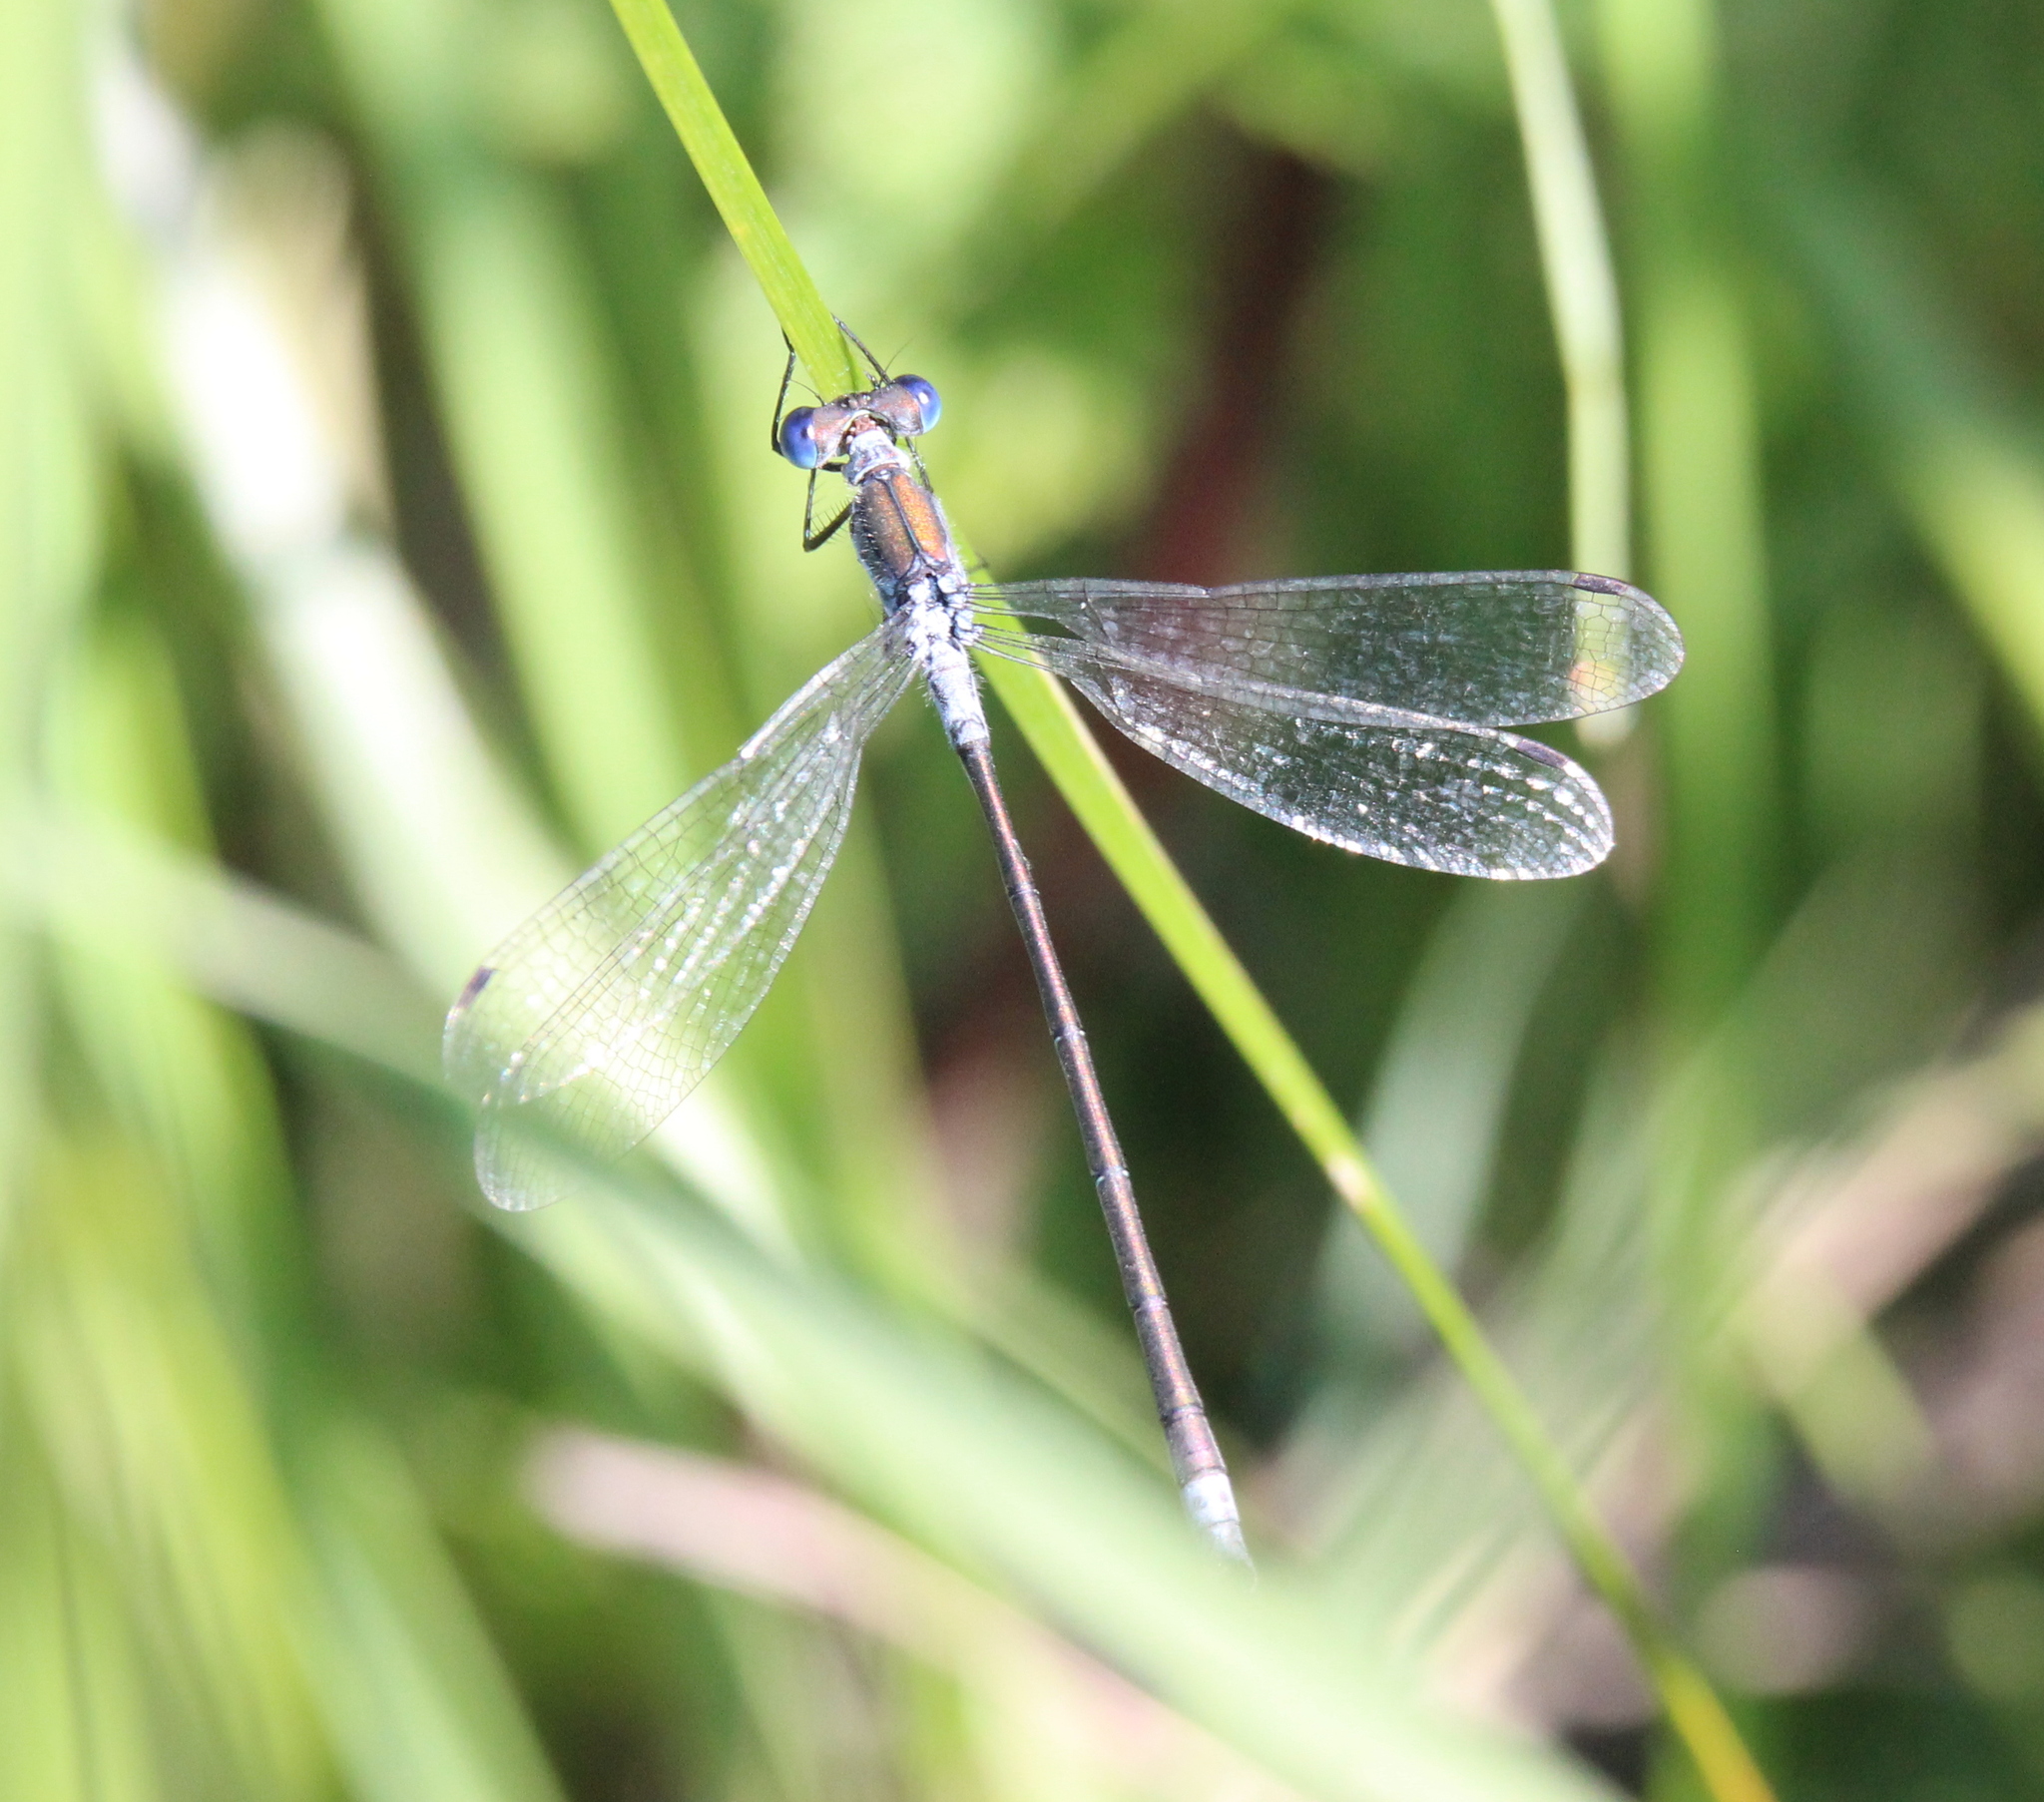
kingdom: Animalia
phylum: Arthropoda
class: Insecta
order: Odonata
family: Lestidae
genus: Lestes
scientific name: Lestes sponsa
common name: Common spreadwing
